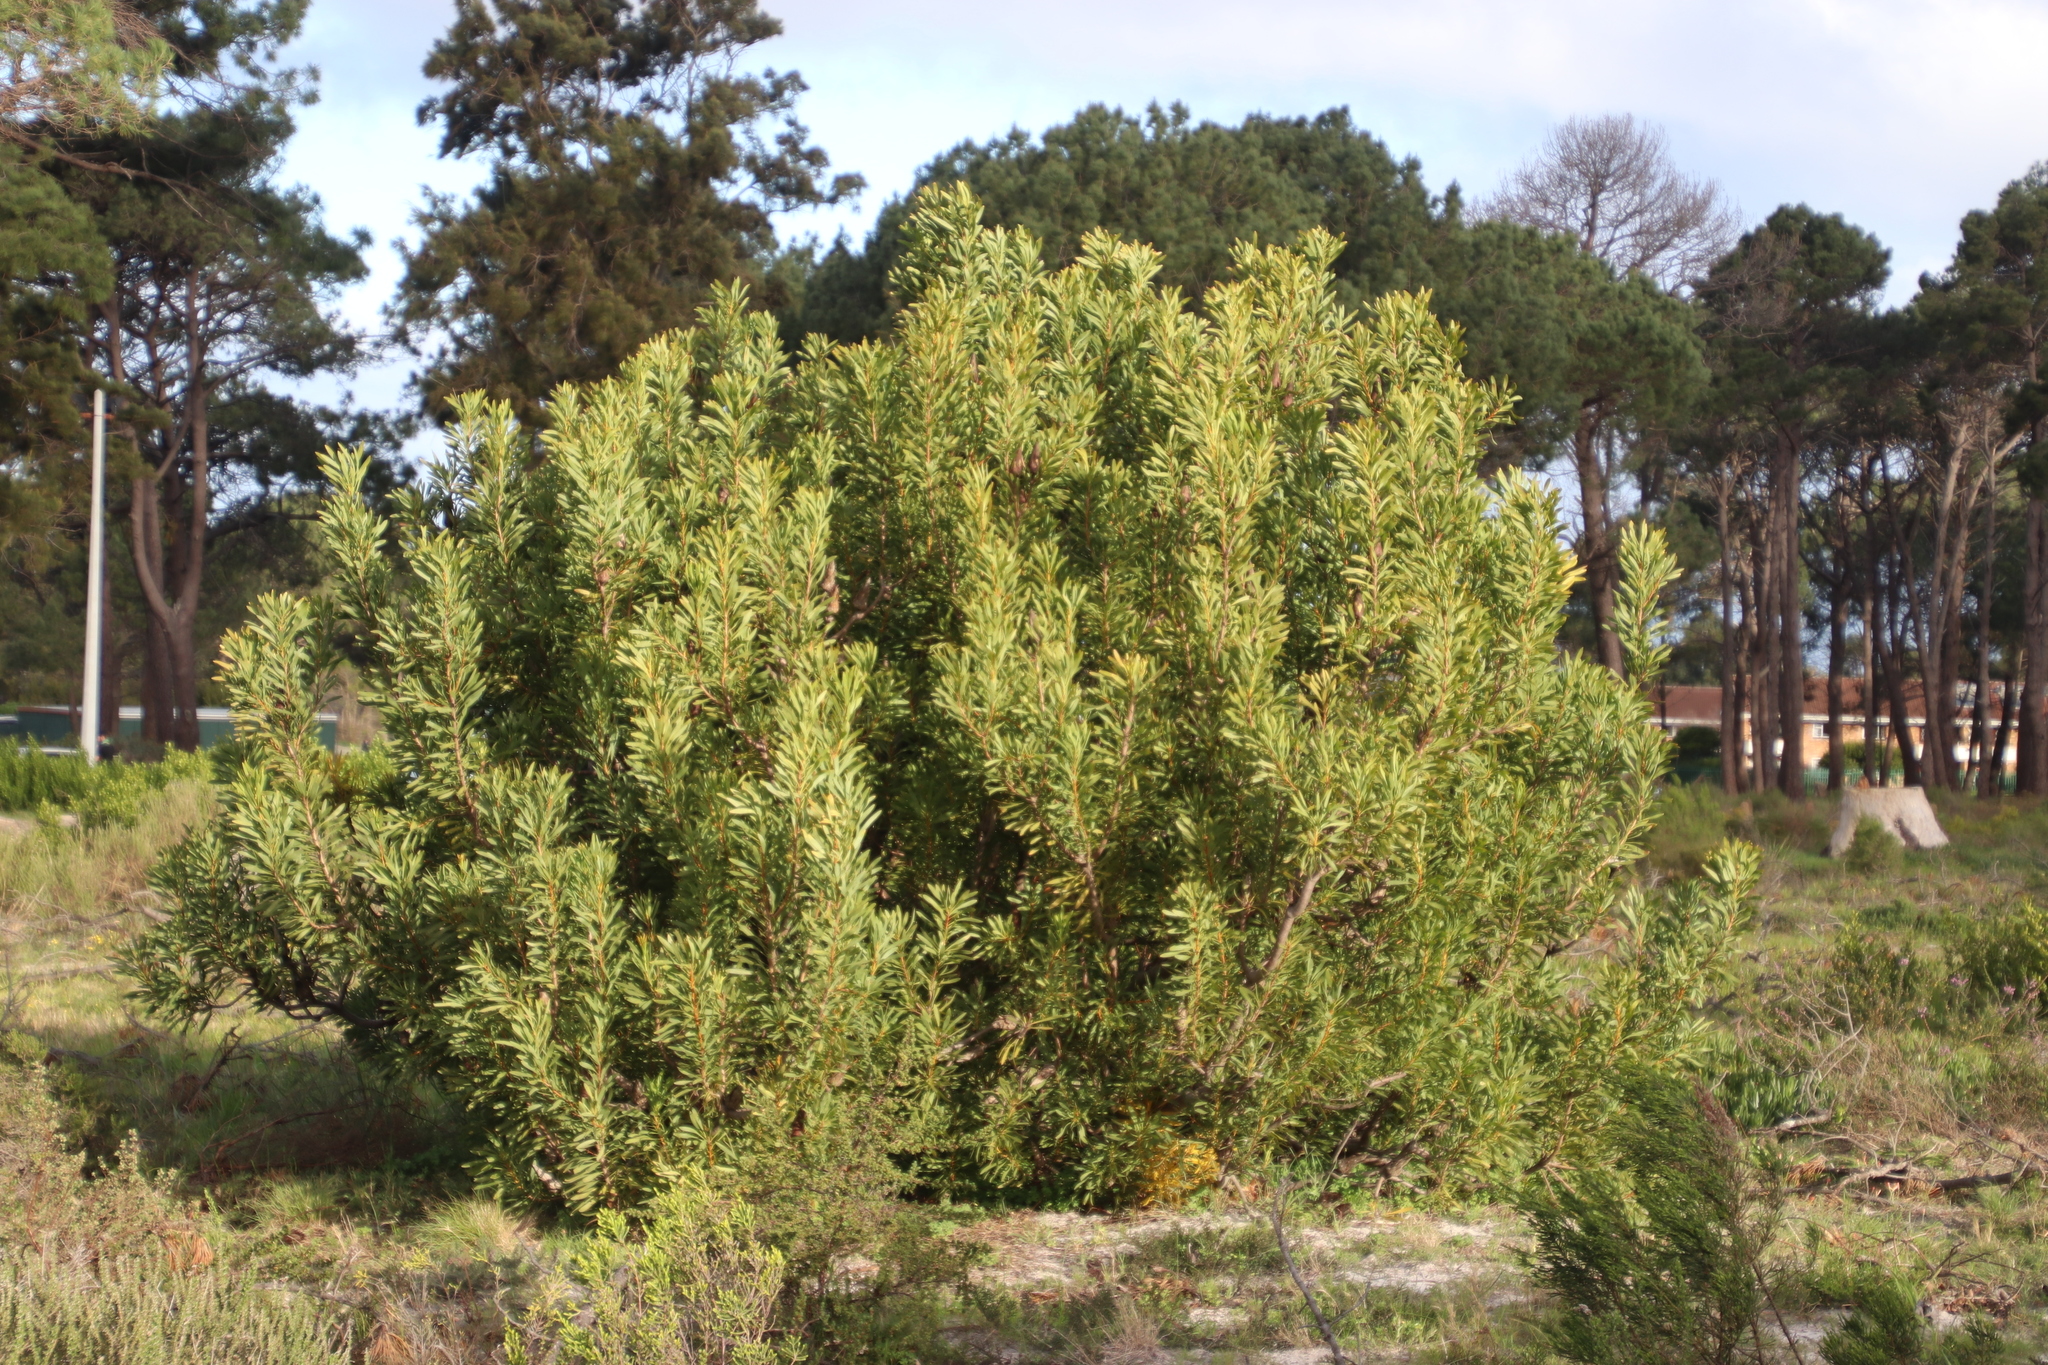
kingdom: Plantae
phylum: Tracheophyta
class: Magnoliopsida
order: Proteales
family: Proteaceae
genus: Protea
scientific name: Protea repens
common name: Sugarbush
